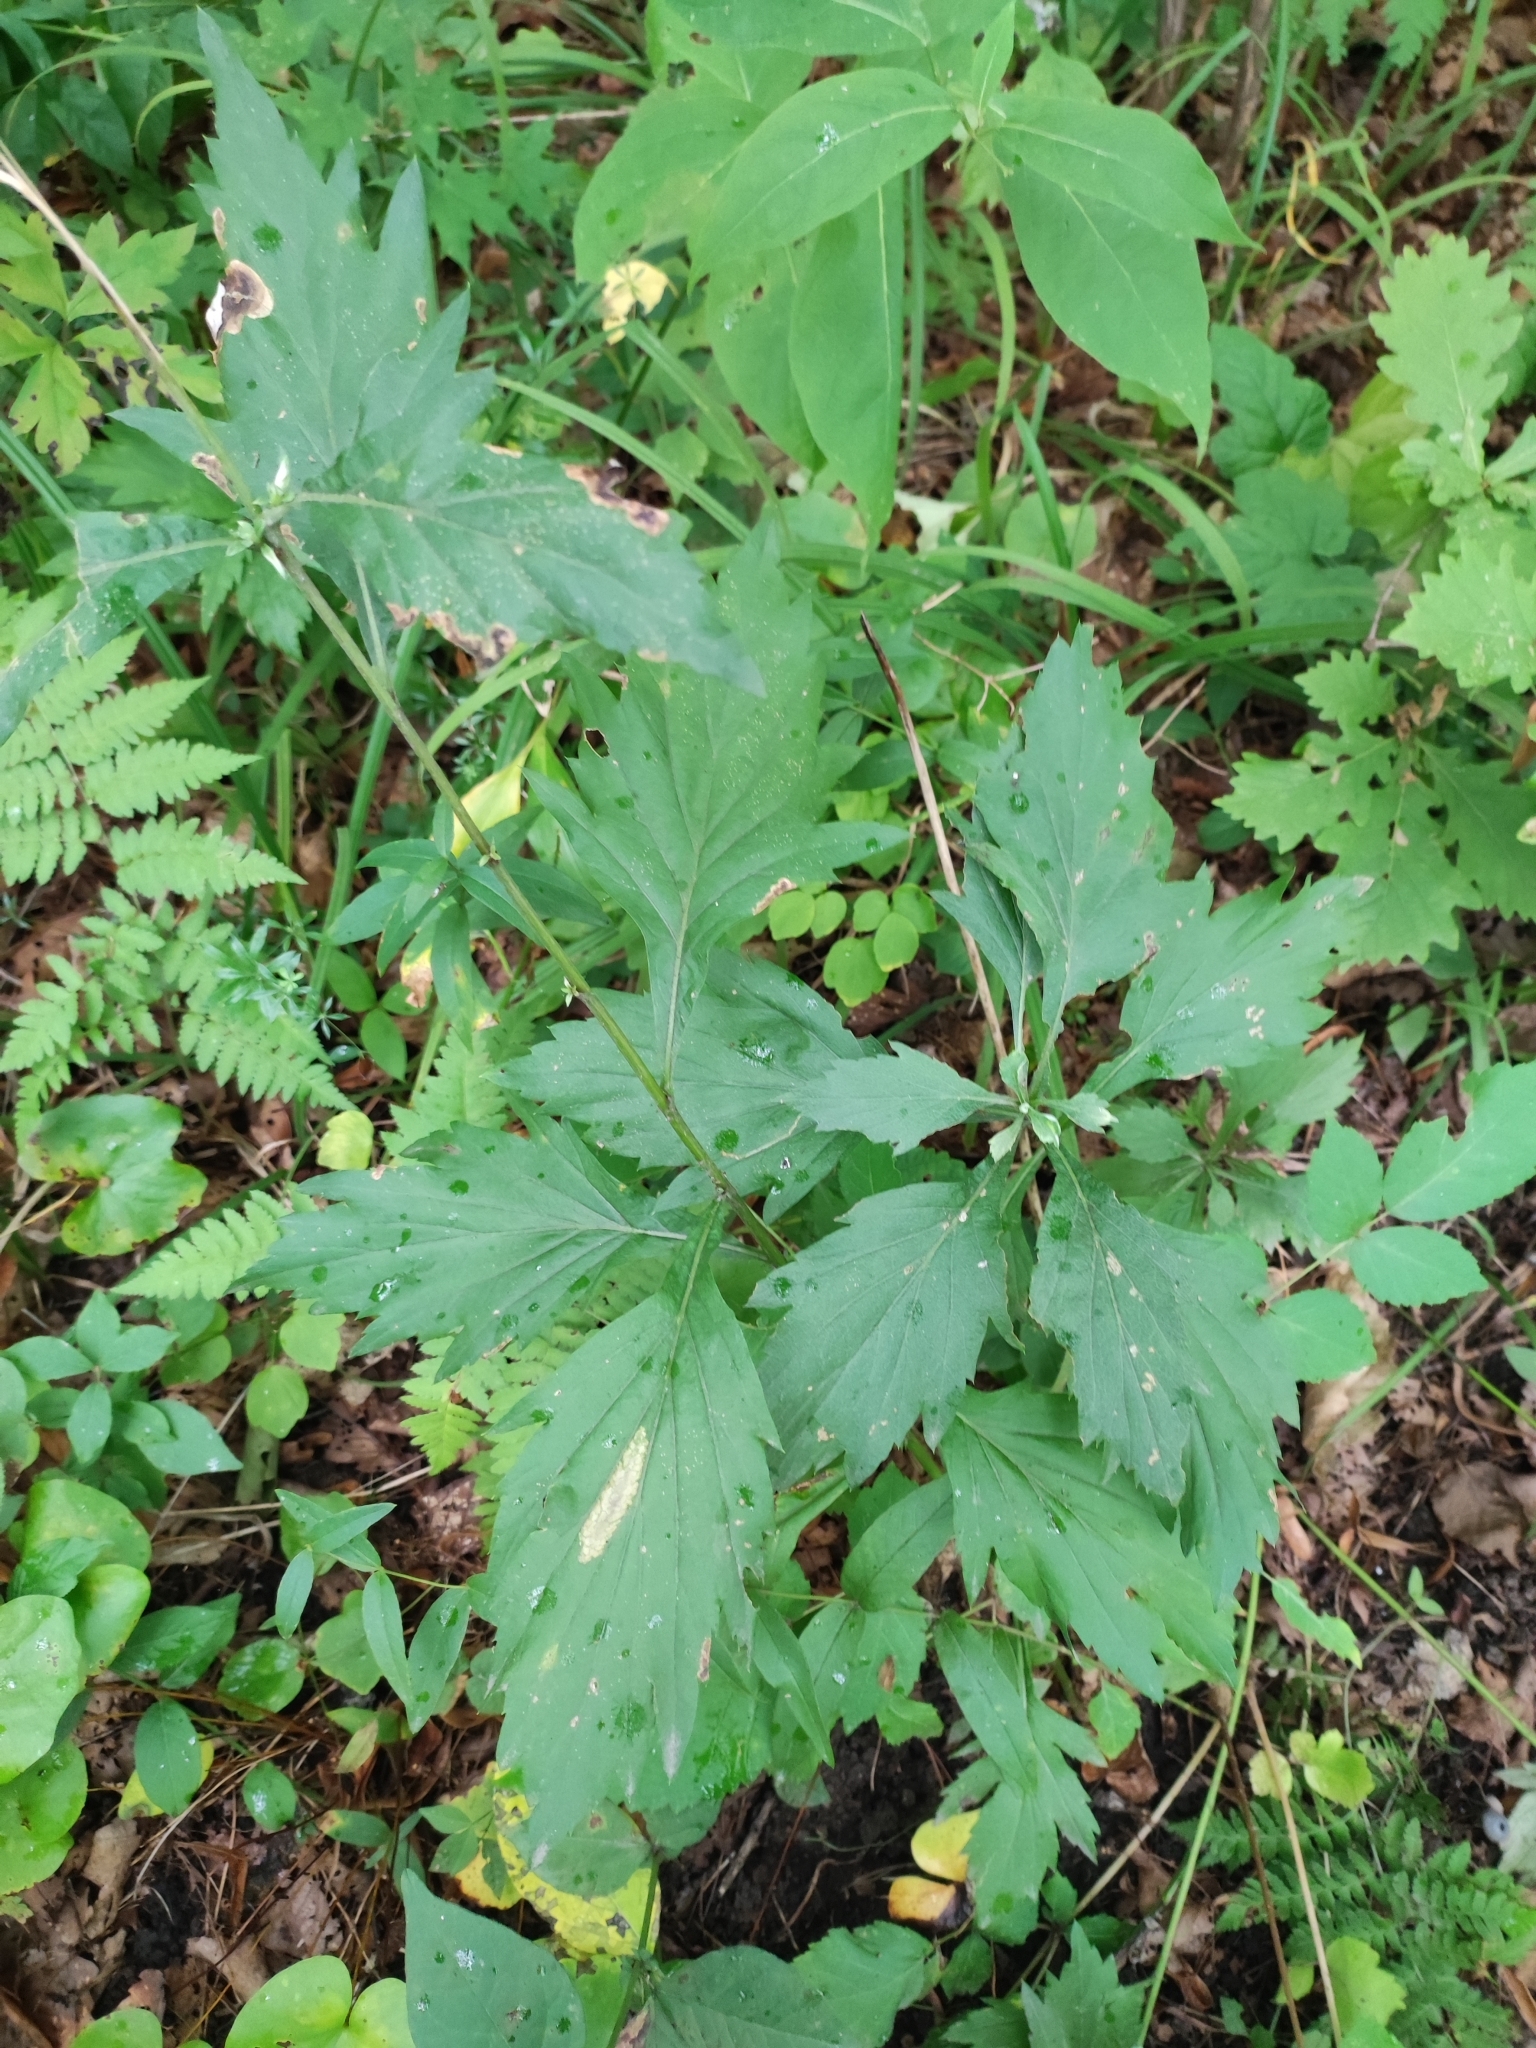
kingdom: Plantae
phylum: Tracheophyta
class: Magnoliopsida
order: Asterales
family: Asteraceae
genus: Artemisia
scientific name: Artemisia stolonifera
